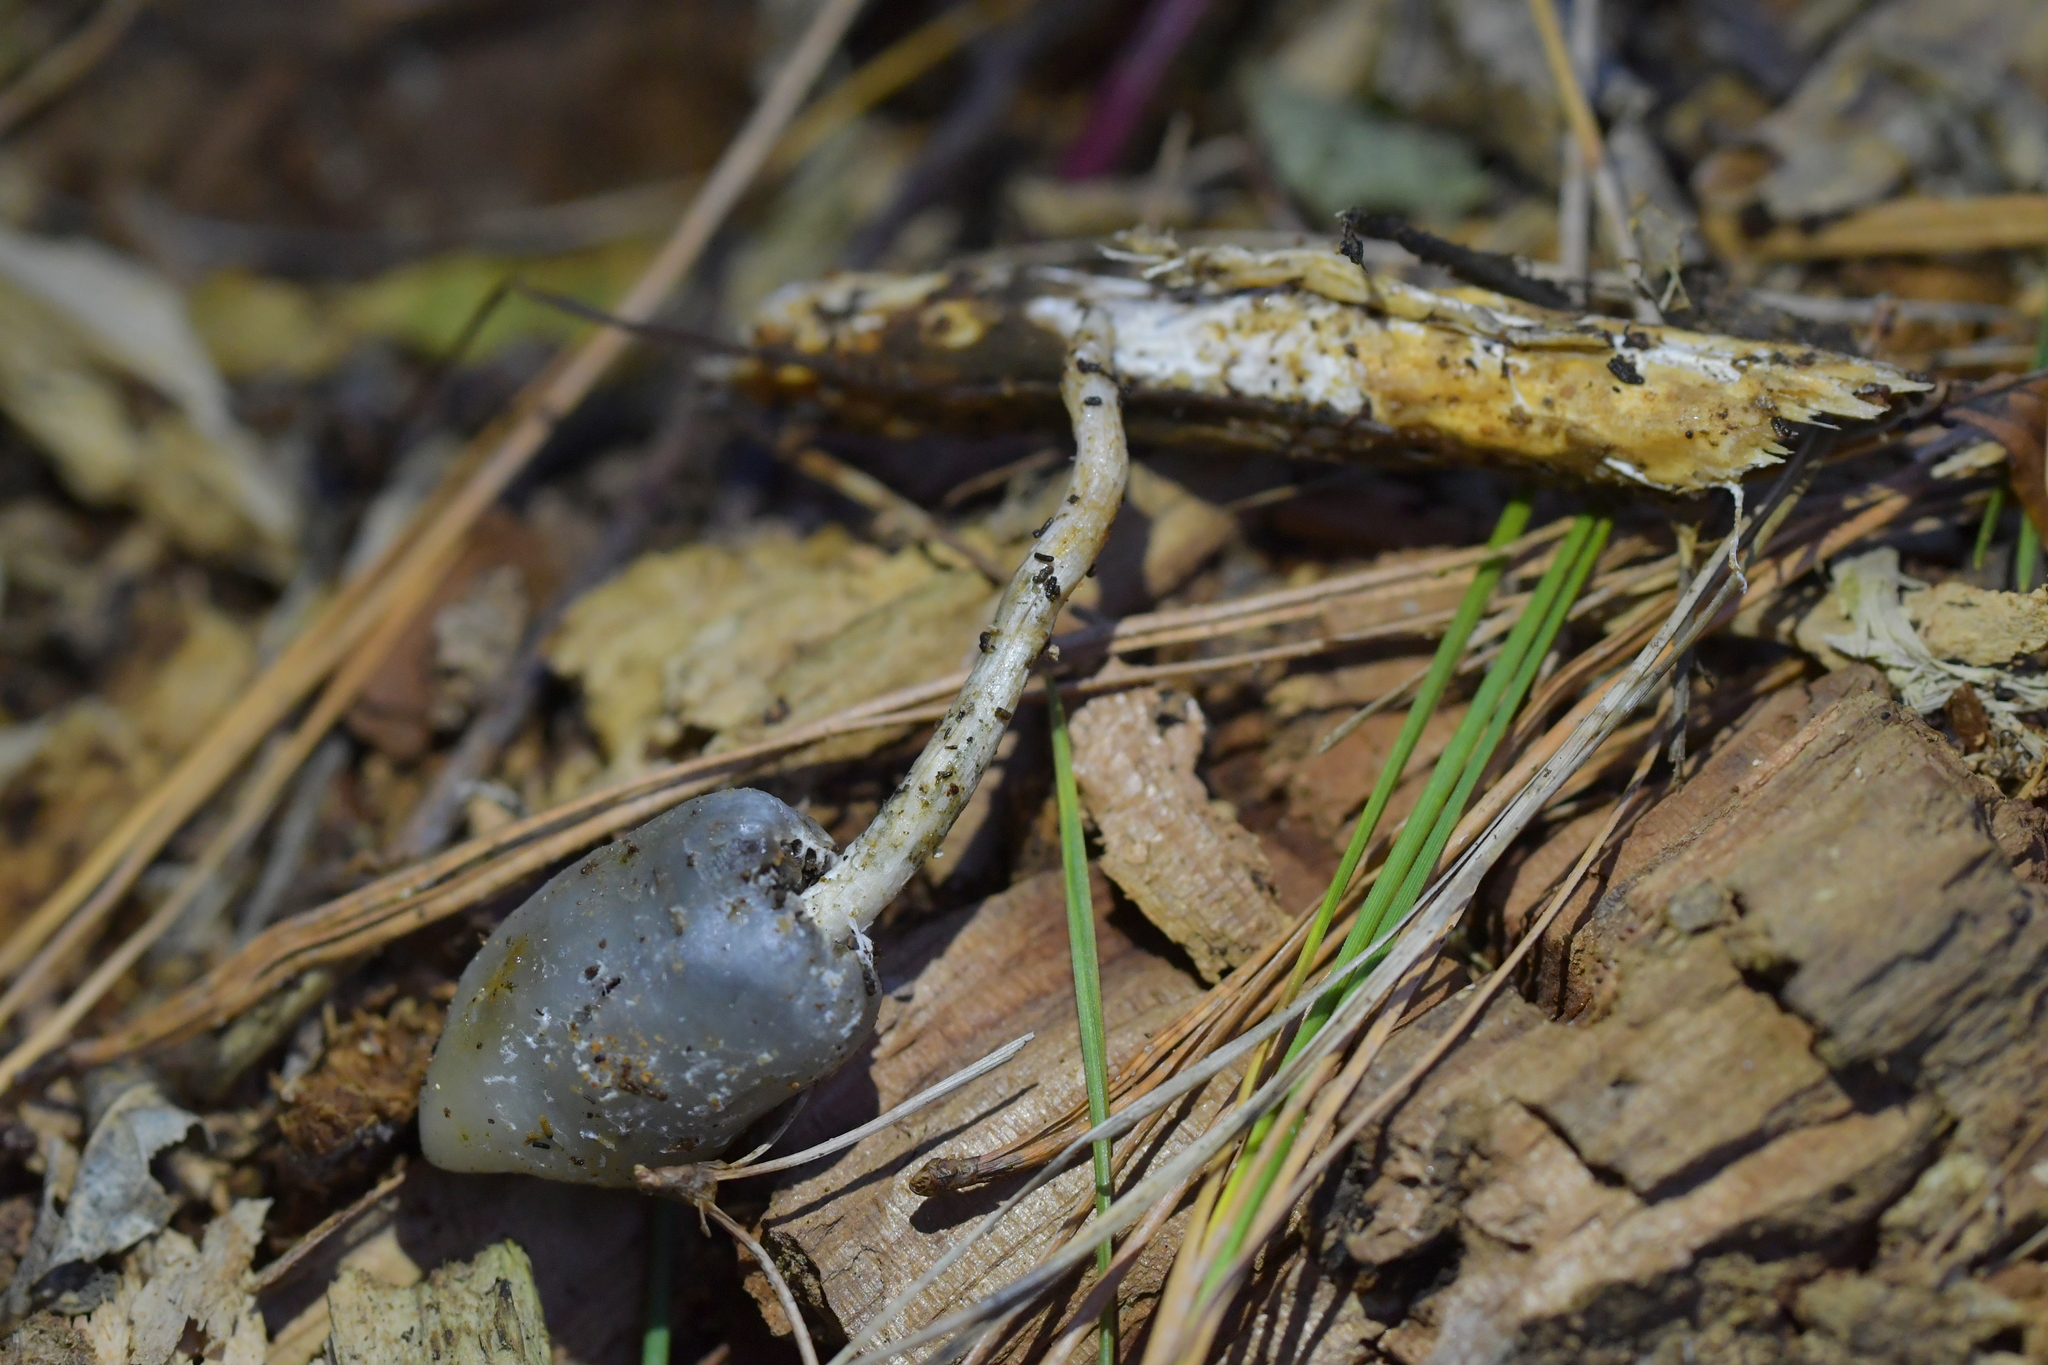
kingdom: Fungi
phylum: Basidiomycota
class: Agaricomycetes
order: Agaricales
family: Hymenogastraceae
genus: Psilocybe
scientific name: Psilocybe weraroa
